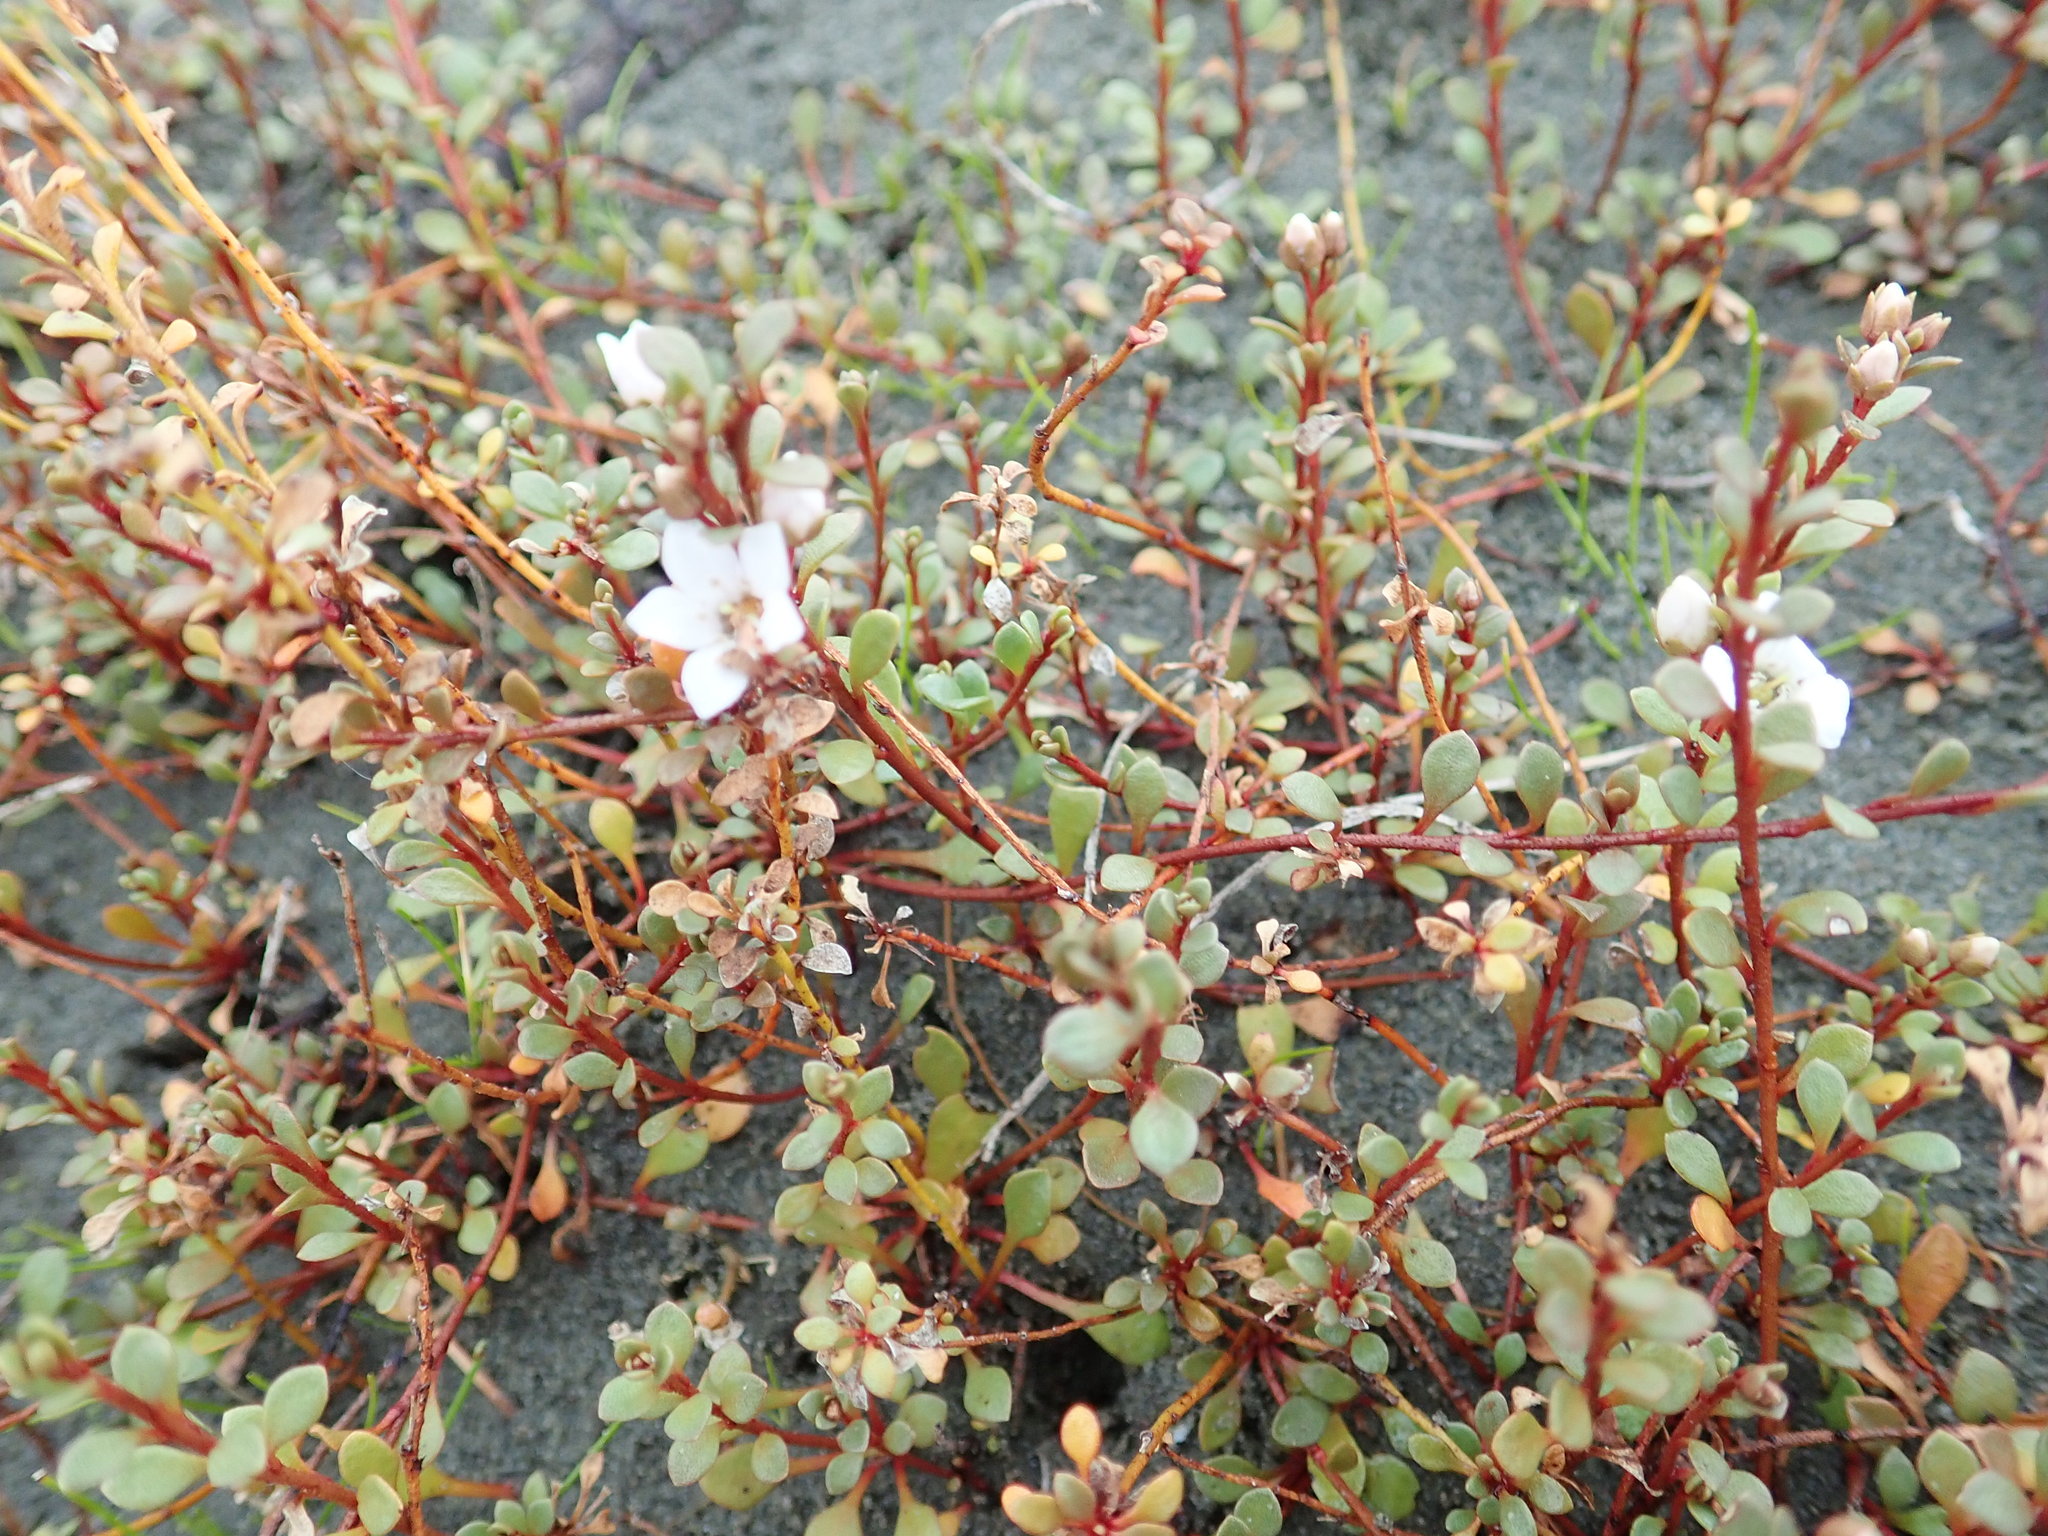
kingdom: Plantae
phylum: Tracheophyta
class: Magnoliopsida
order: Ericales
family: Primulaceae
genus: Samolus
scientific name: Samolus repens
